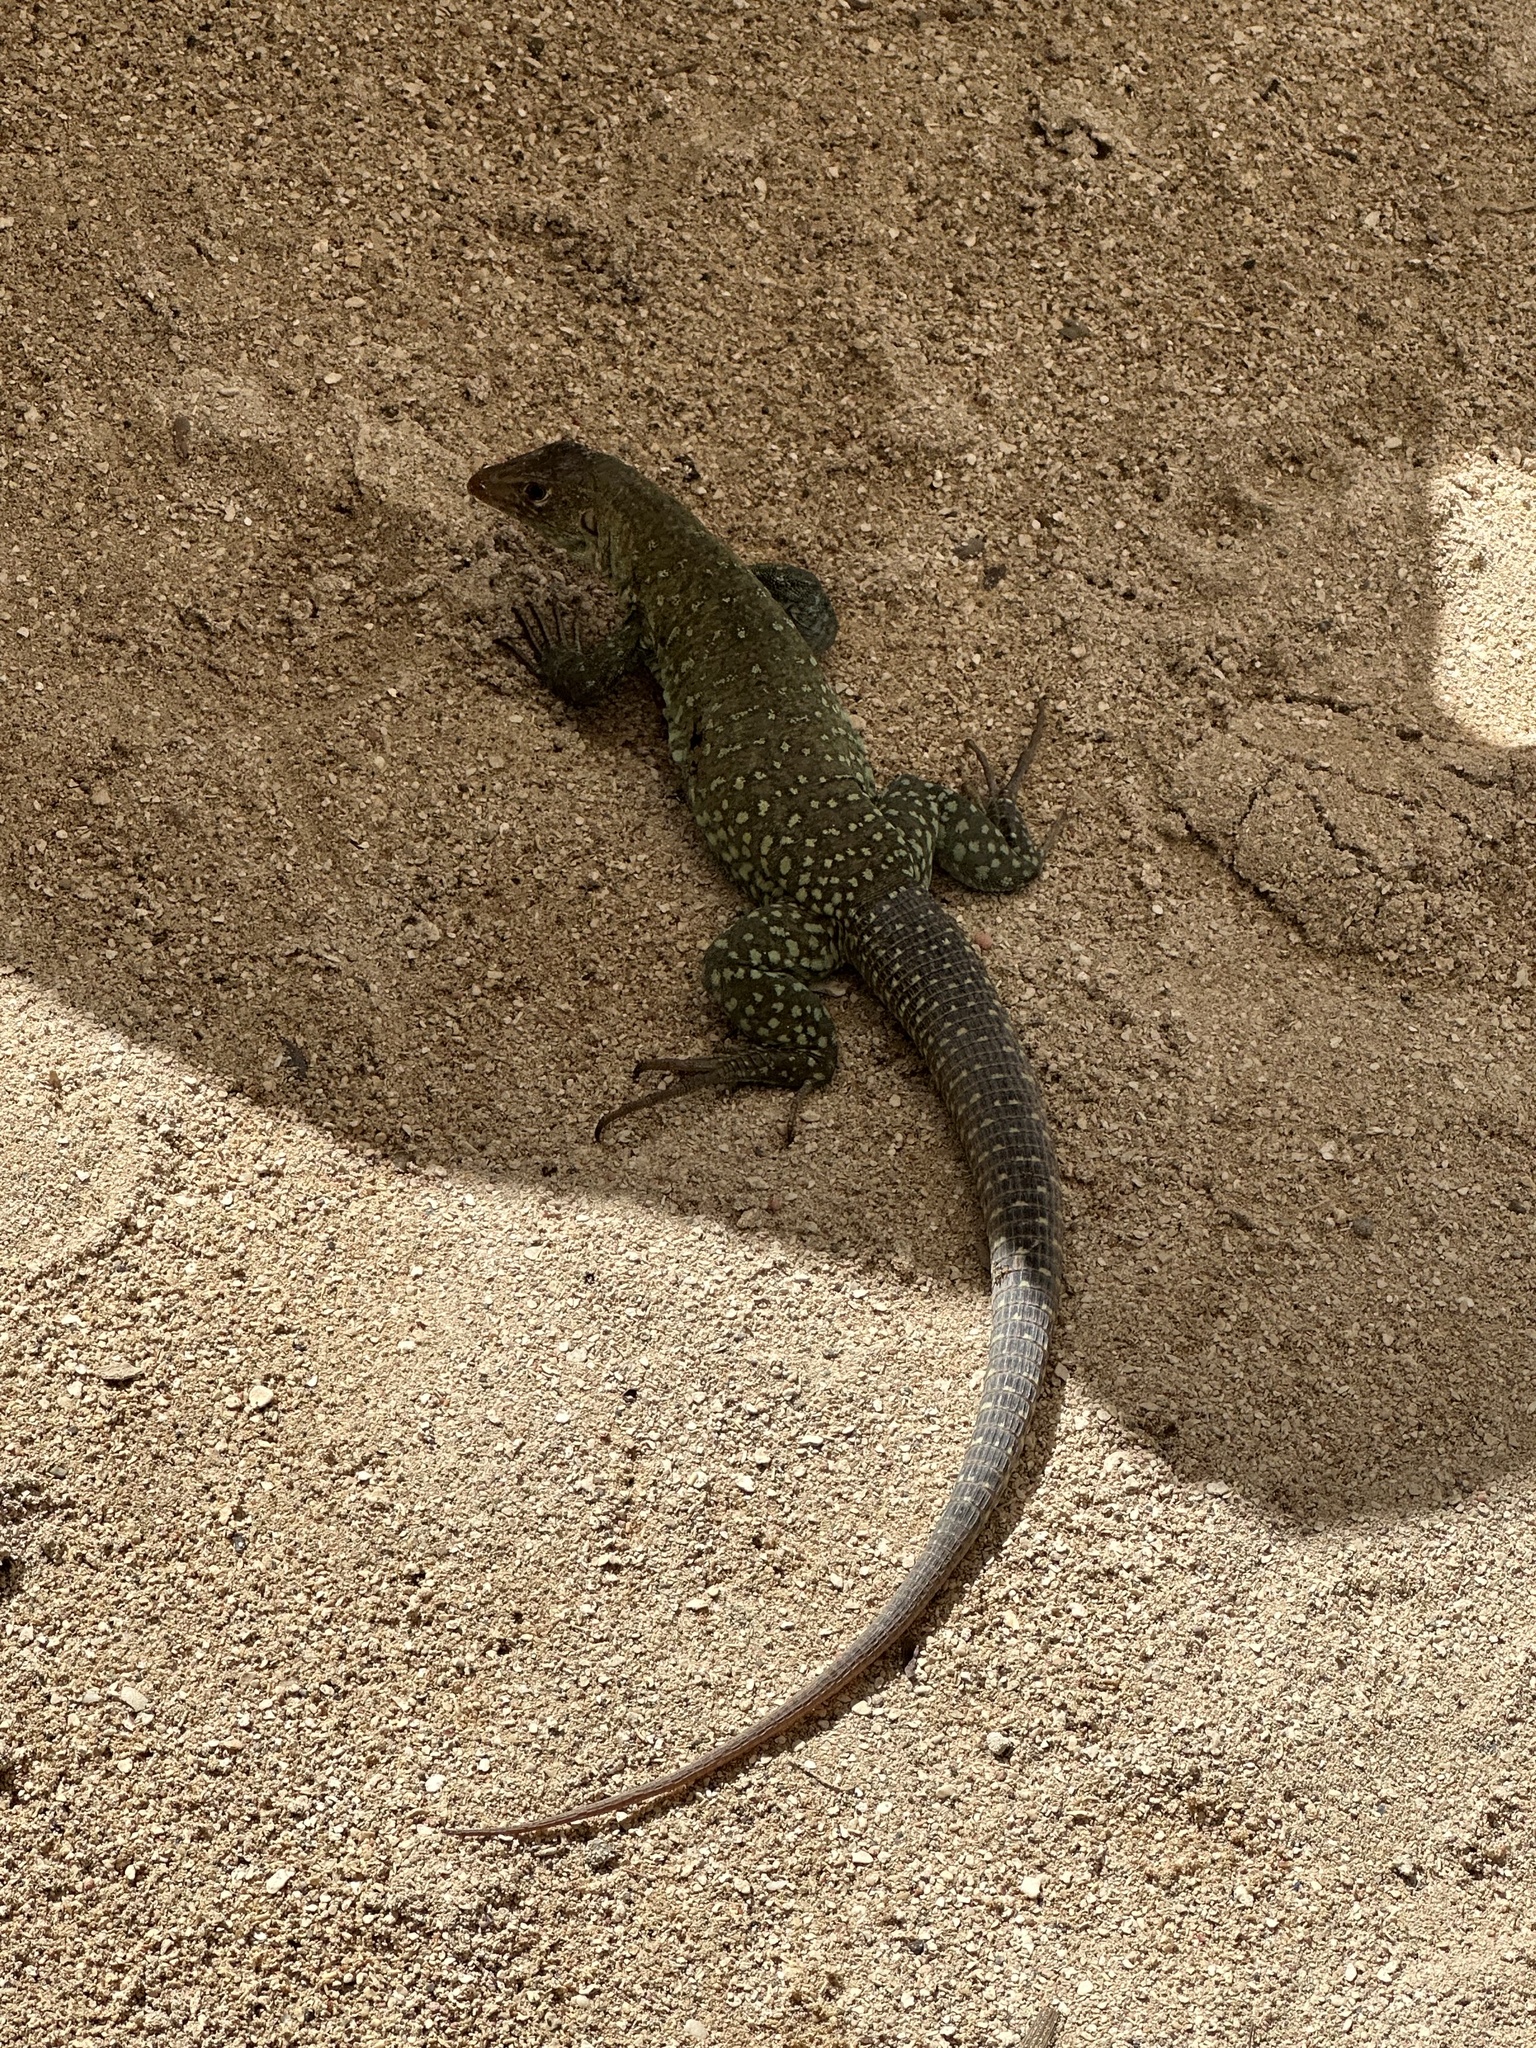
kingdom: Animalia
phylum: Chordata
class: Squamata
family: Teiidae
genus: Pholidoscelis
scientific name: Pholidoscelis plei
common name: Anguilla bank ameiva
